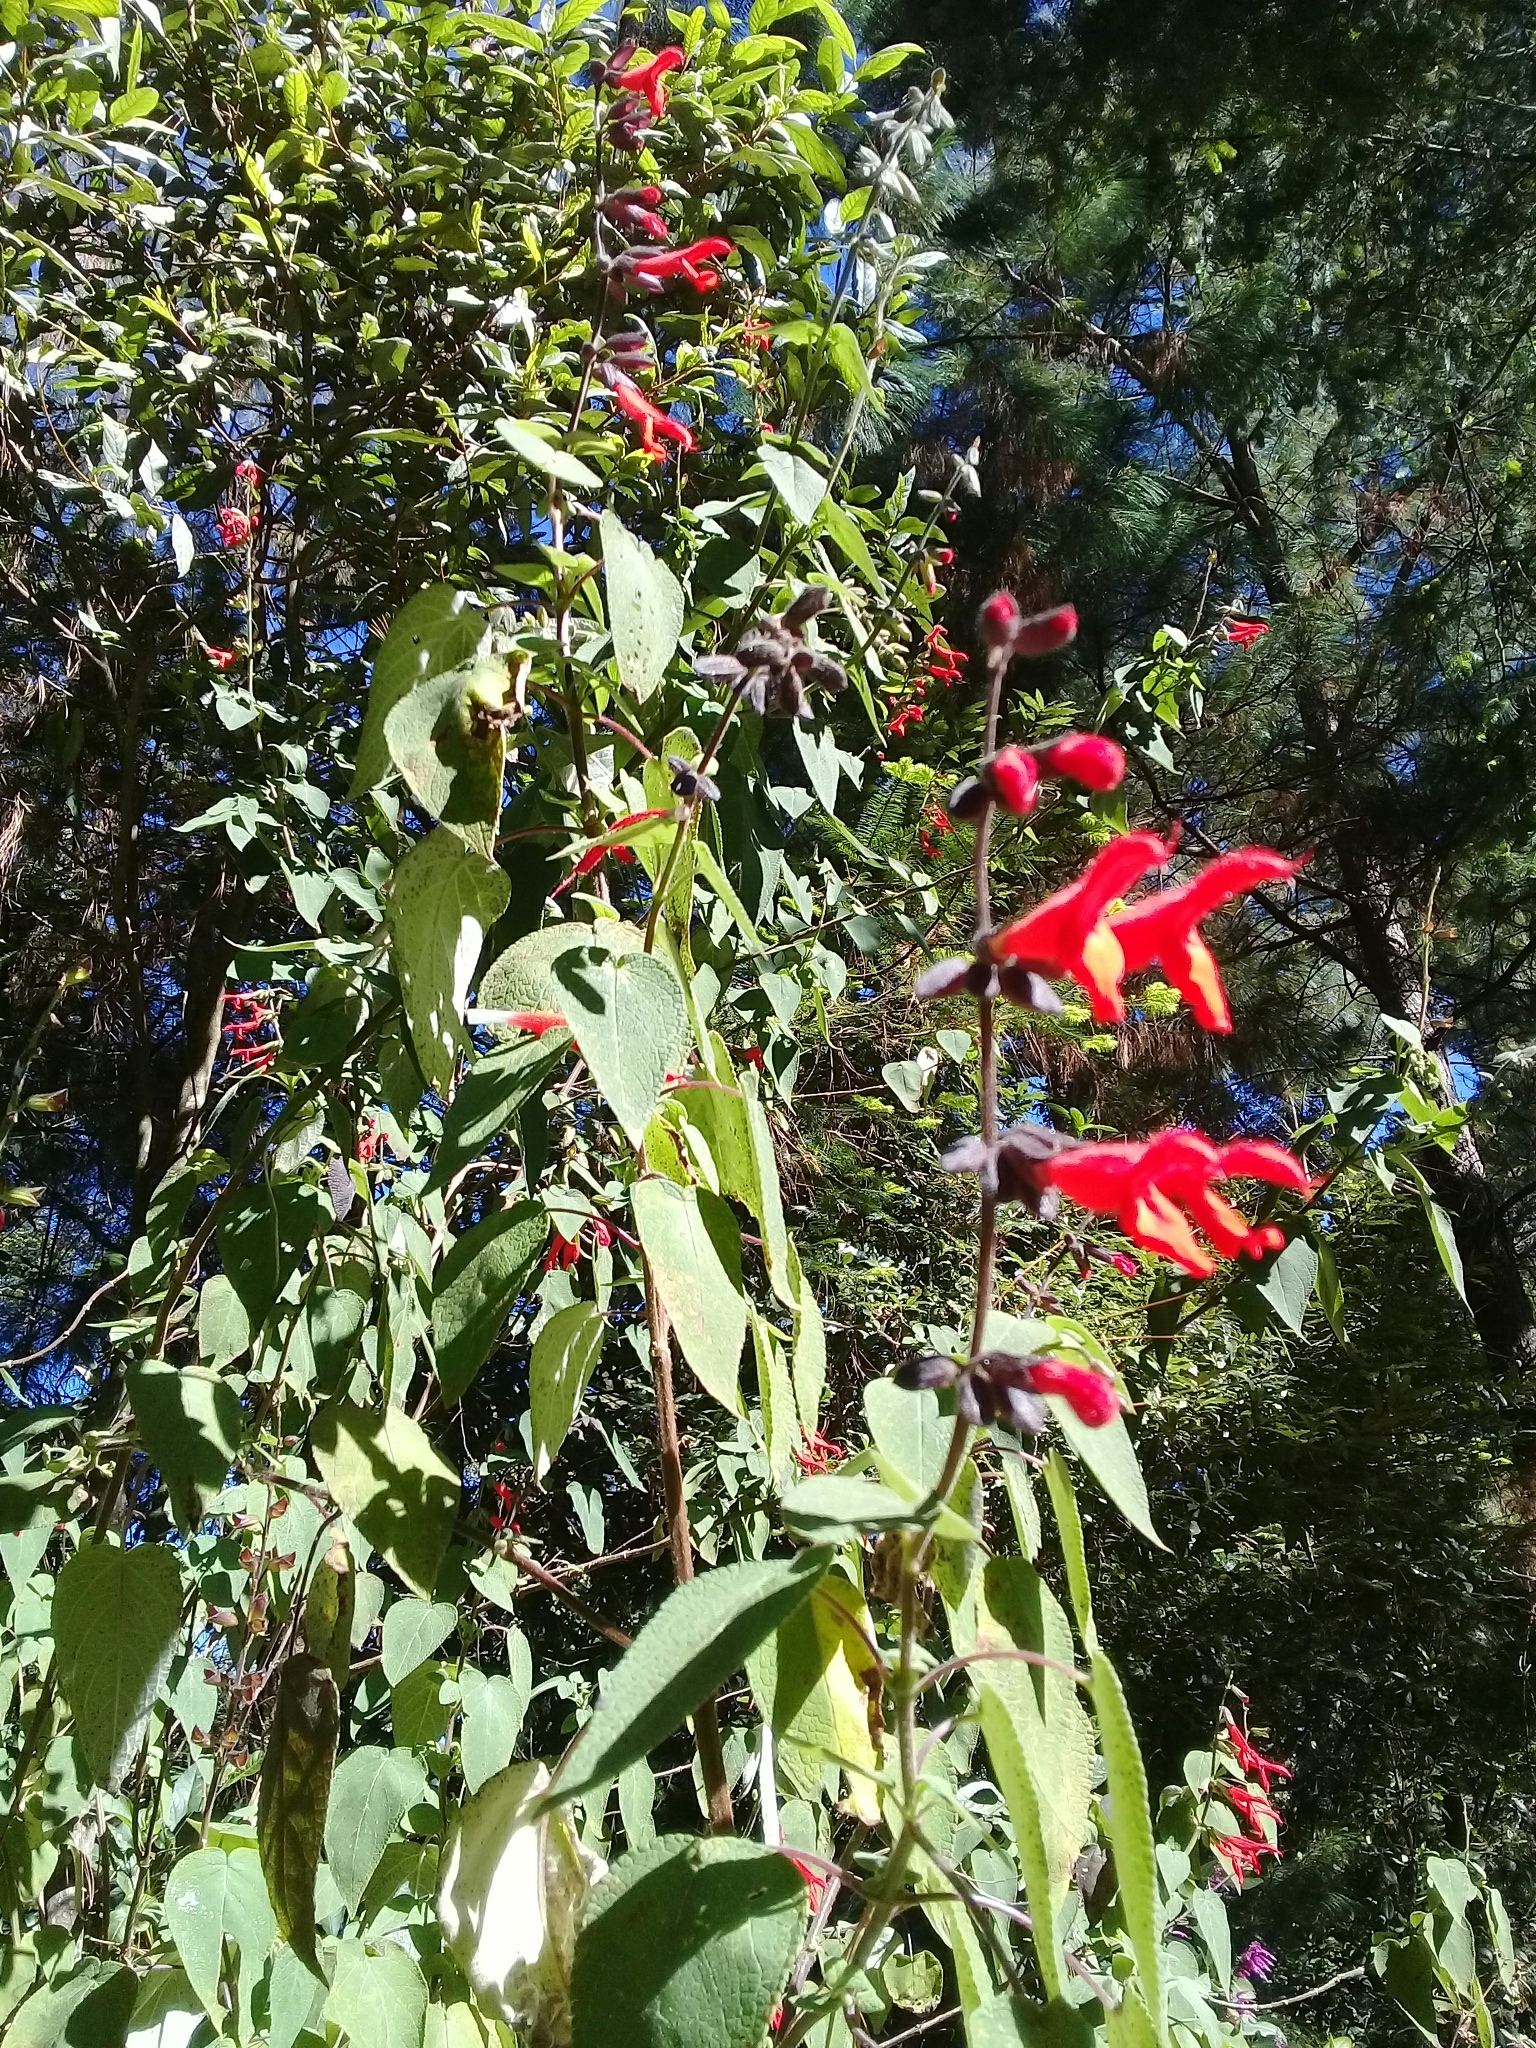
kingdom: Plantae
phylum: Tracheophyta
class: Magnoliopsida
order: Lamiales
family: Lamiaceae
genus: Salvia
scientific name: Salvia gesneriiflora
